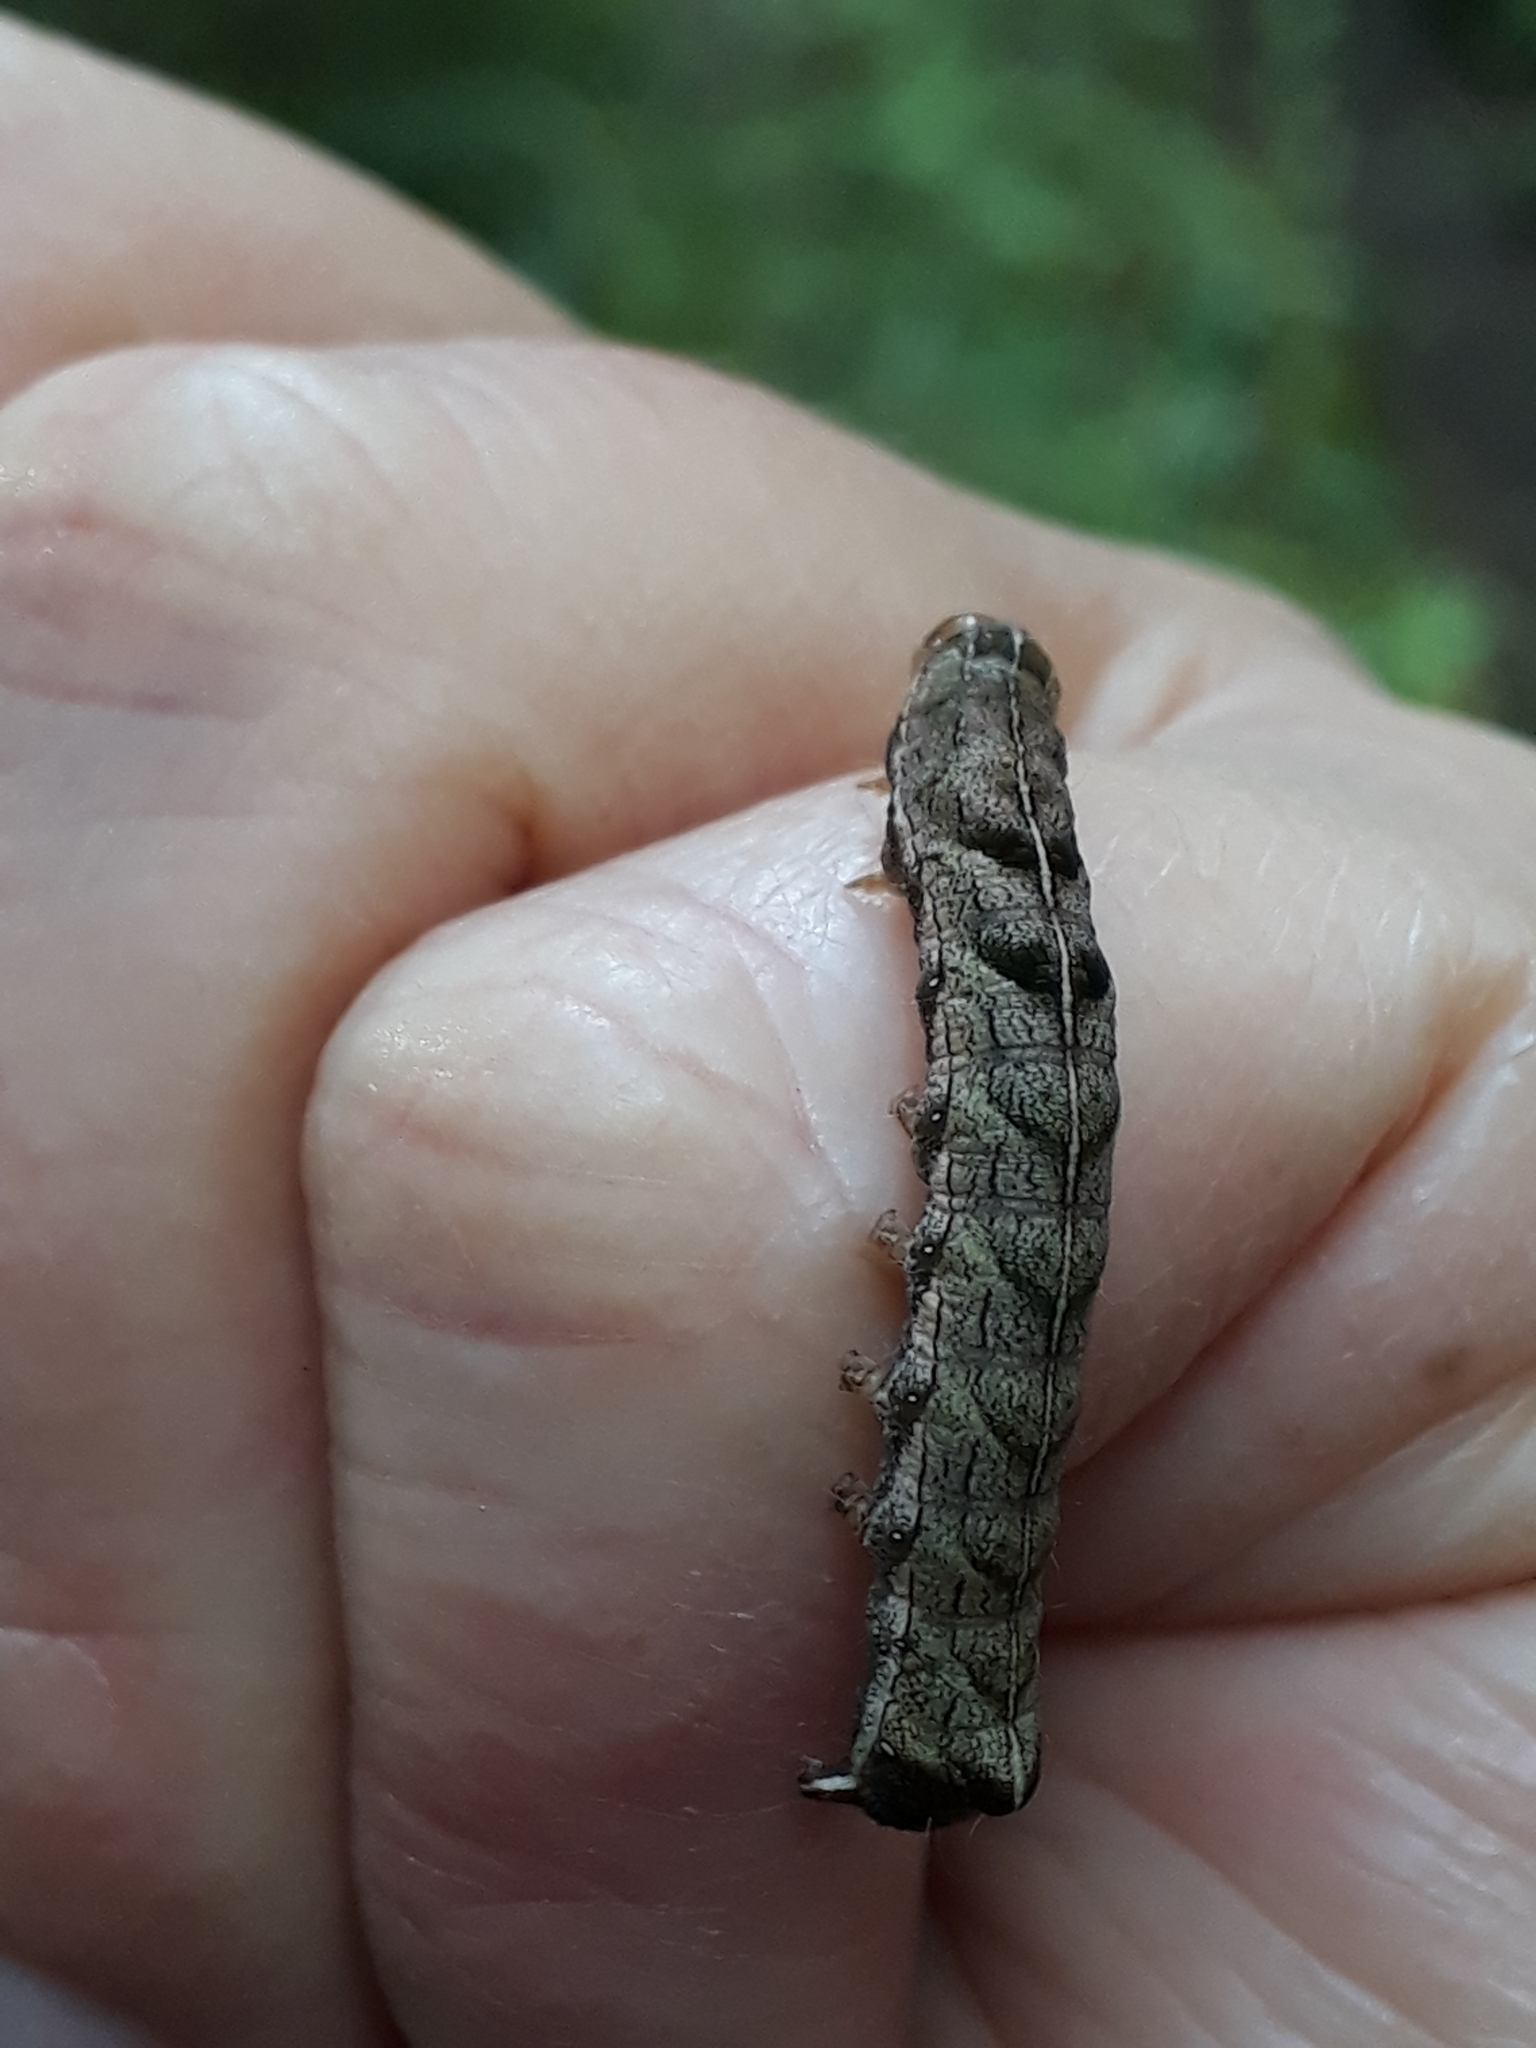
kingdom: Animalia
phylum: Arthropoda
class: Insecta
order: Lepidoptera
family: Noctuidae
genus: Melanchra
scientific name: Melanchra persicariae
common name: Dot moth
